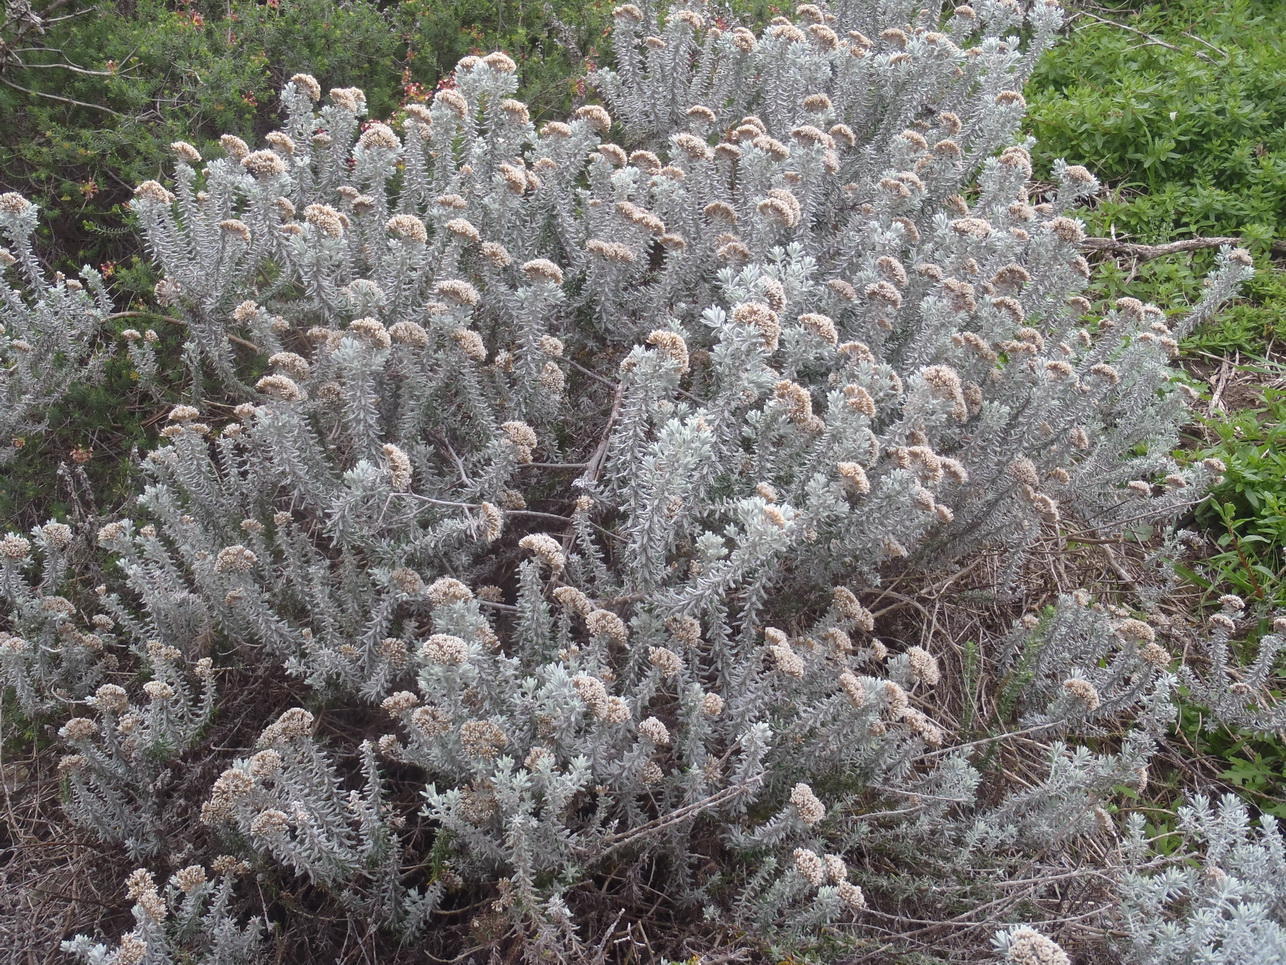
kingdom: Plantae
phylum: Tracheophyta
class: Magnoliopsida
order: Asterales
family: Asteraceae
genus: Metalasia
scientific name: Metalasia densa
